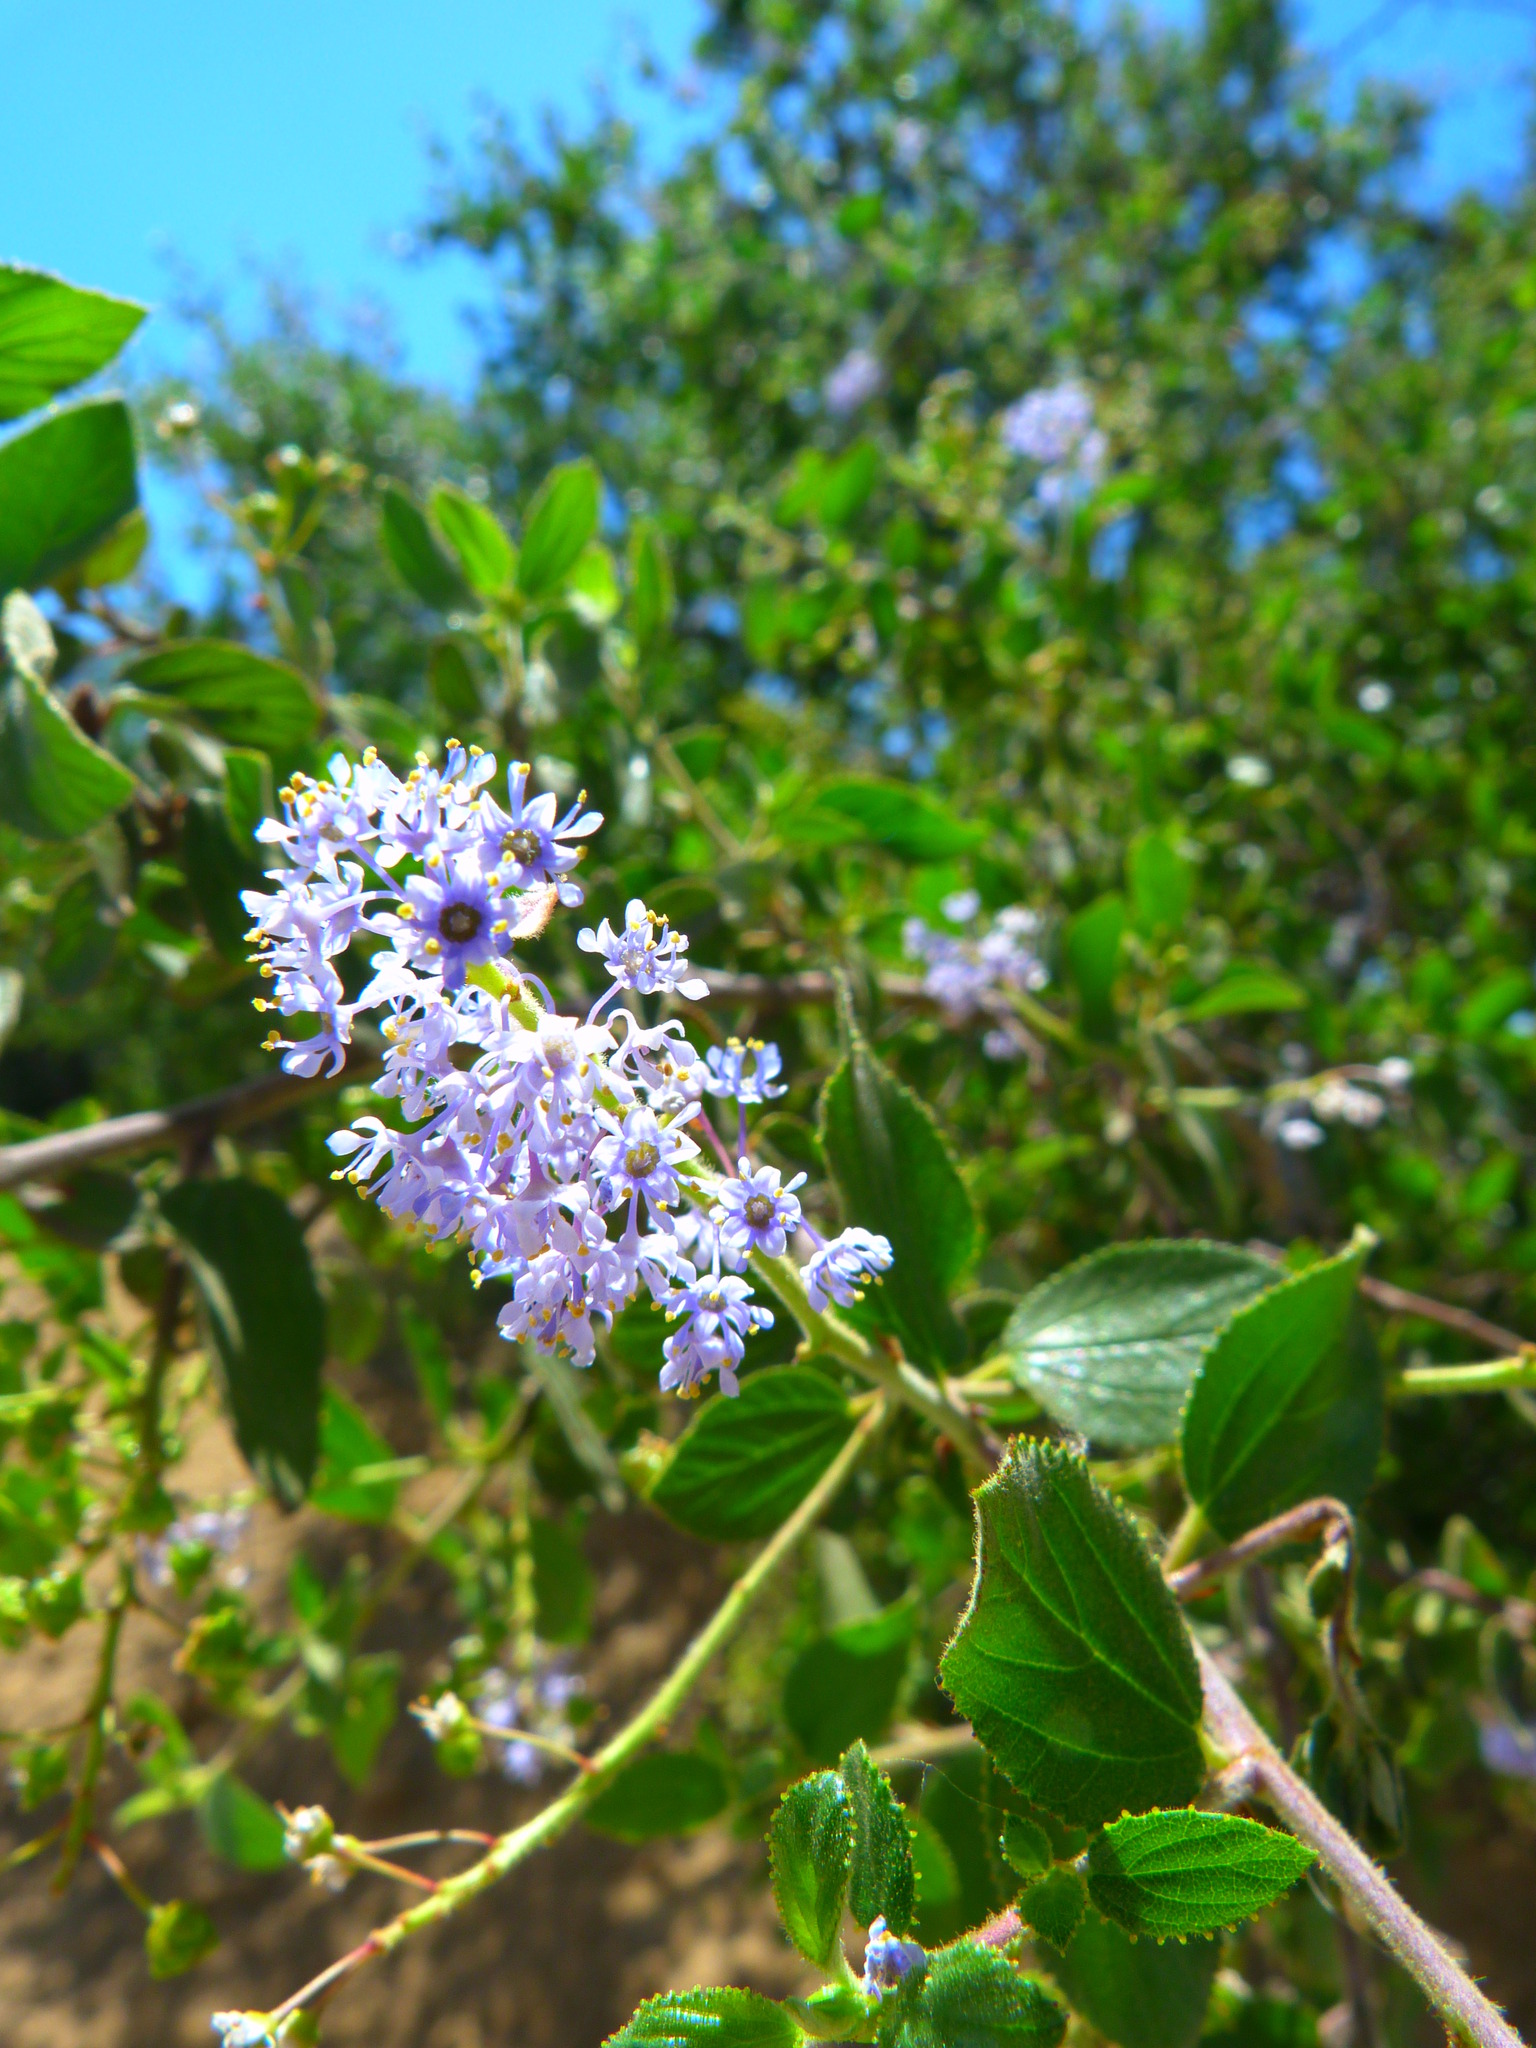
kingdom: Plantae
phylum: Tracheophyta
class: Magnoliopsida
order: Rosales
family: Rhamnaceae
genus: Ceanothus
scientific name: Ceanothus oliganthus
